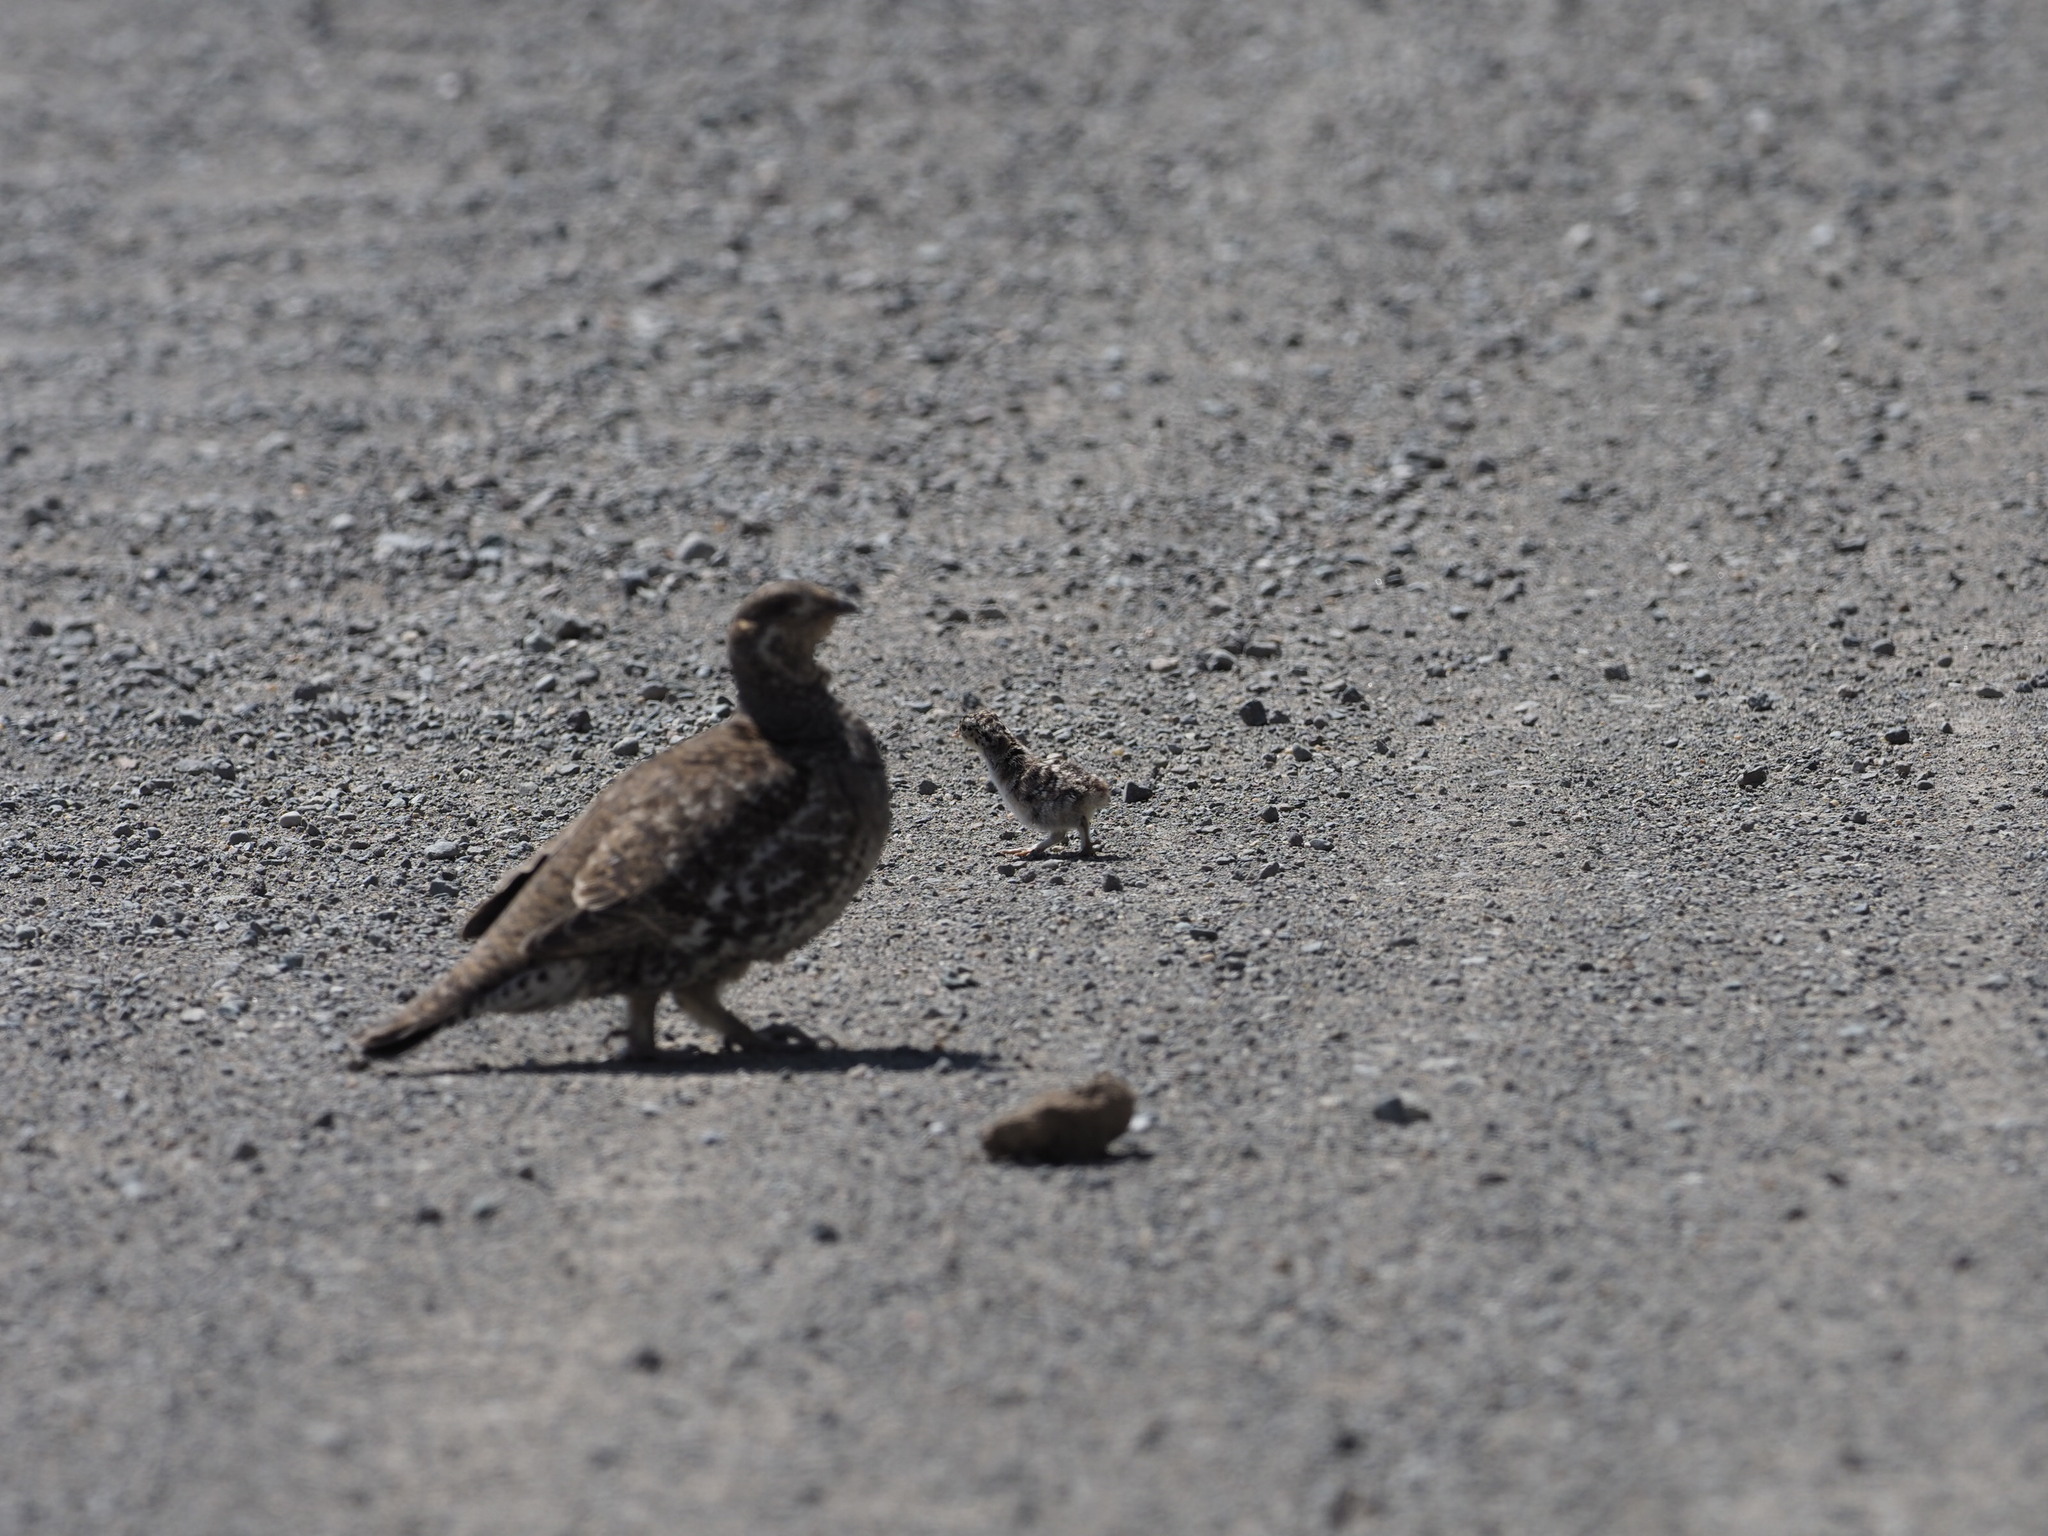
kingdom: Animalia
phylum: Chordata
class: Aves
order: Galliformes
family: Phasianidae
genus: Dendragapus
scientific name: Dendragapus obscurus
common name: Dusky grouse
